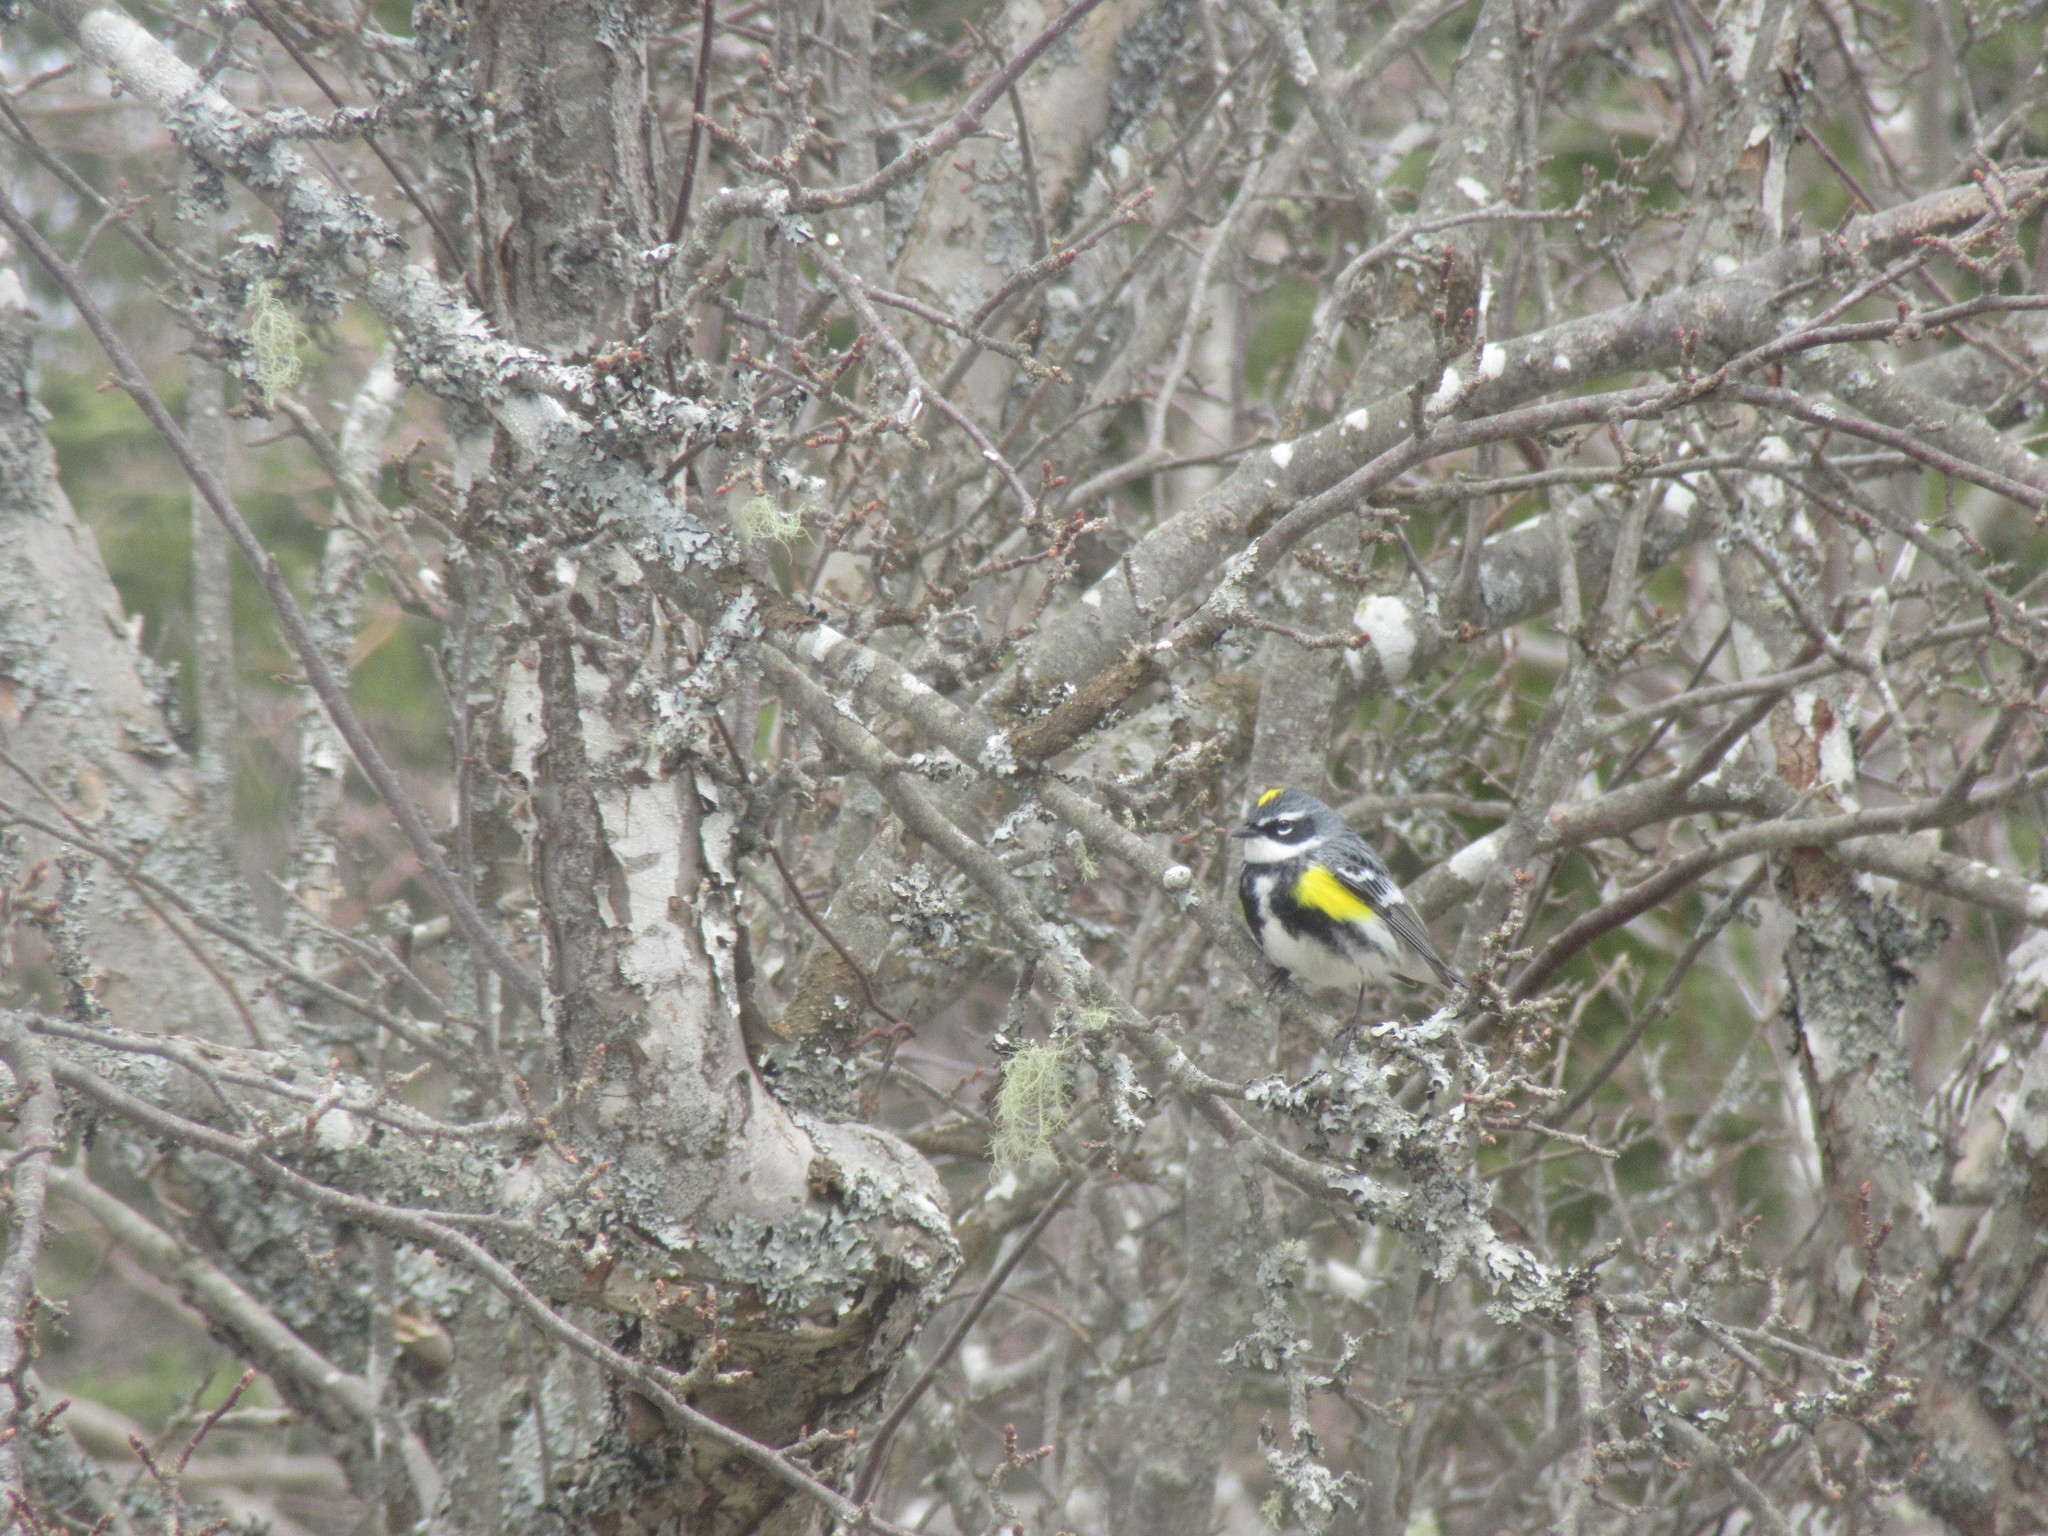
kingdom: Animalia
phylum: Chordata
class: Aves
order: Passeriformes
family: Parulidae
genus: Setophaga
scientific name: Setophaga coronata
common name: Myrtle warbler
